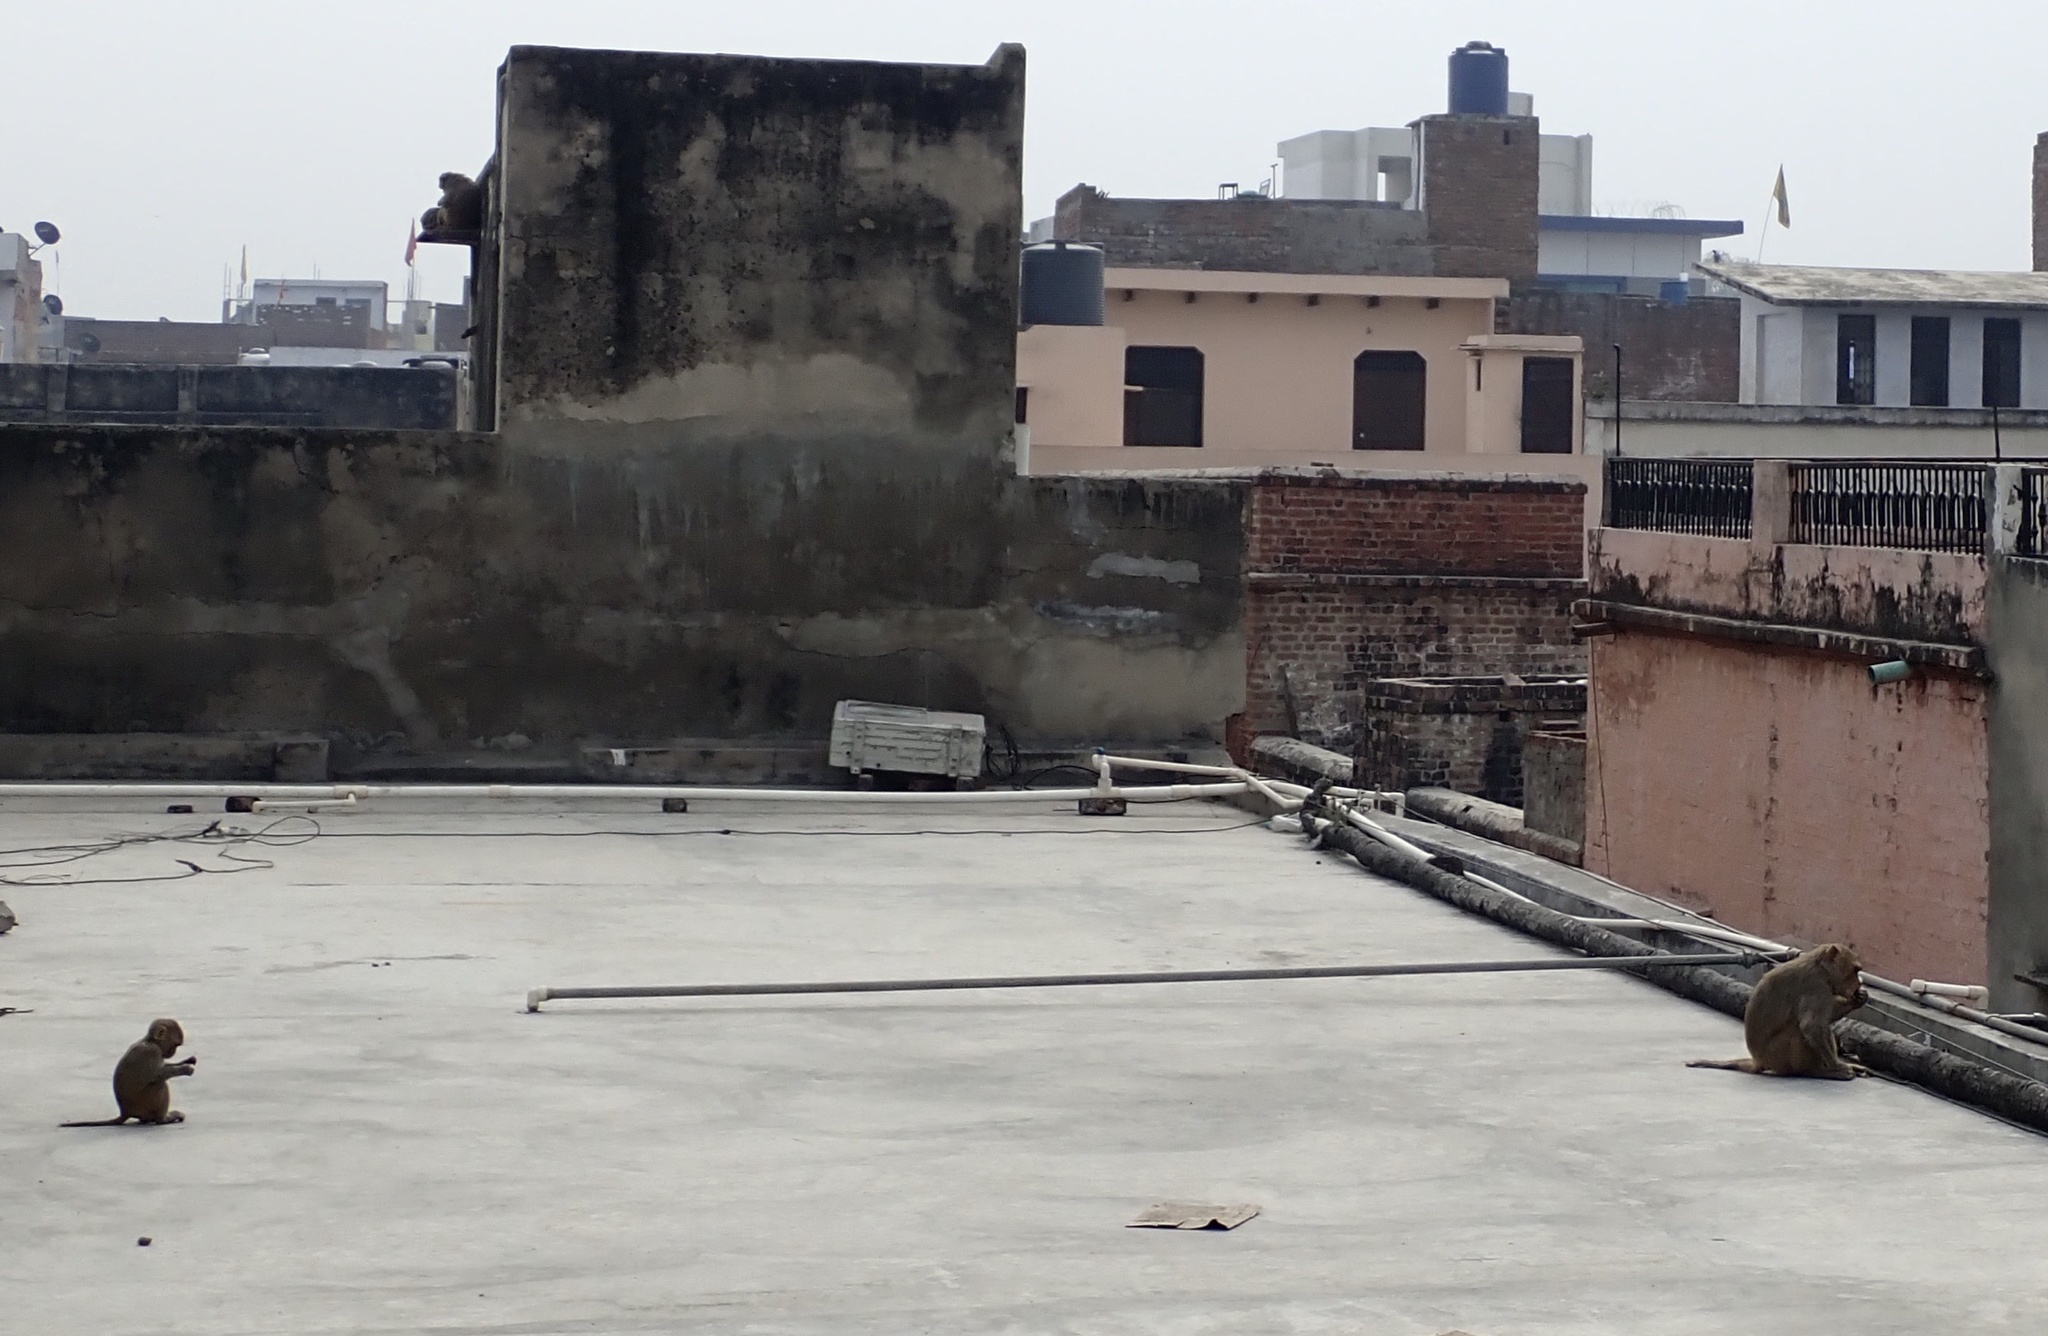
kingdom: Animalia
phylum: Chordata
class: Mammalia
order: Primates
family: Cercopithecidae
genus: Macaca
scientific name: Macaca mulatta
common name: Rhesus monkey
